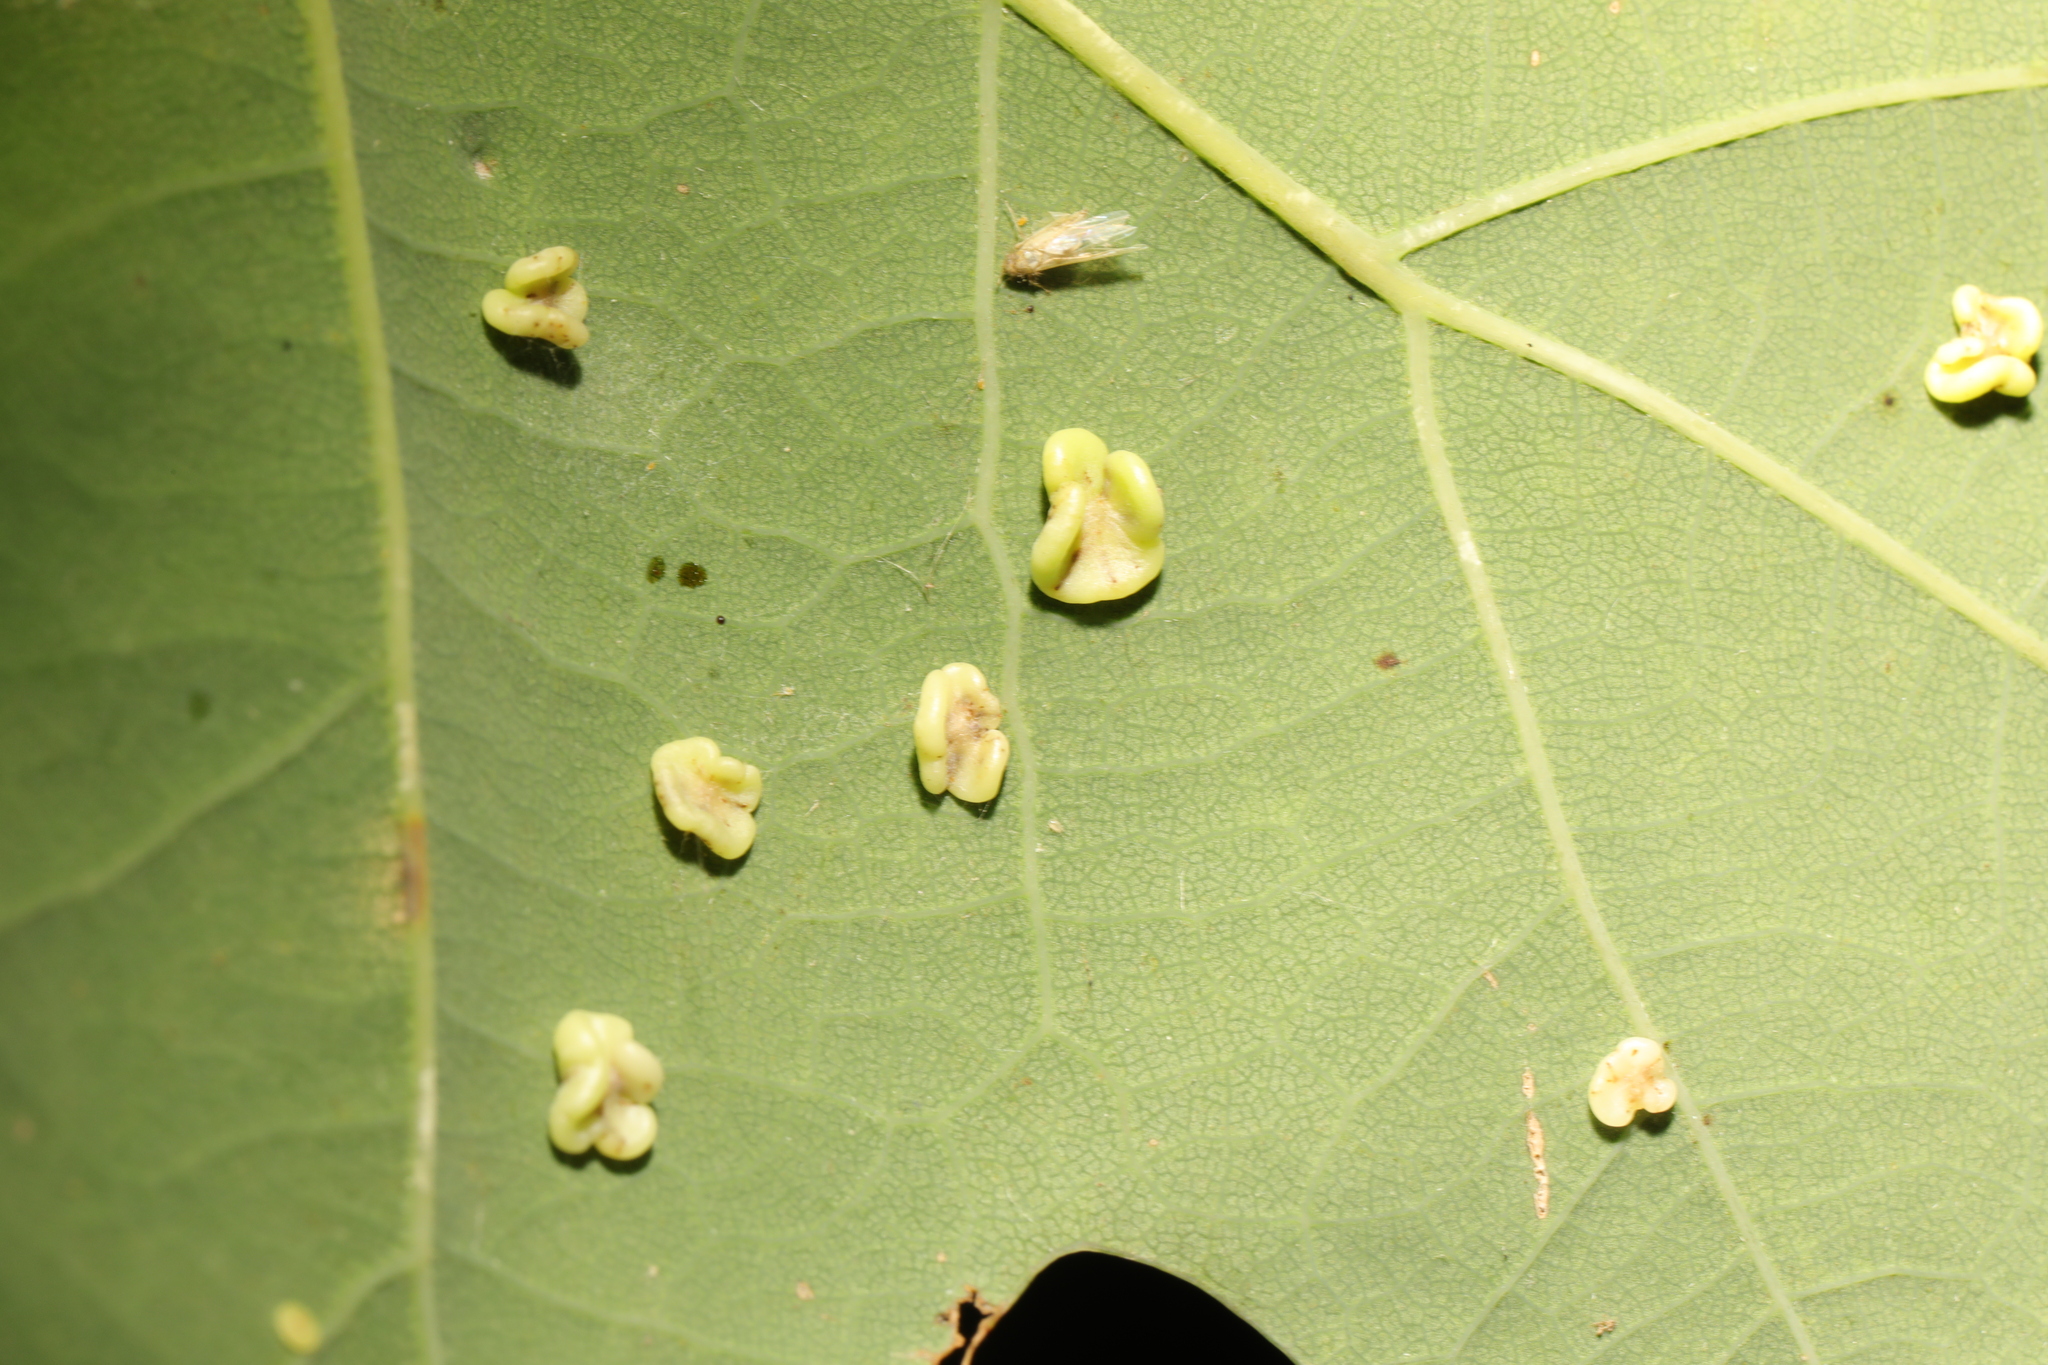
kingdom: Animalia
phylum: Arthropoda
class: Insecta
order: Hymenoptera
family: Cynipidae
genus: Neuroterus
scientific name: Neuroterus albipes
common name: Smooth spangle gall
